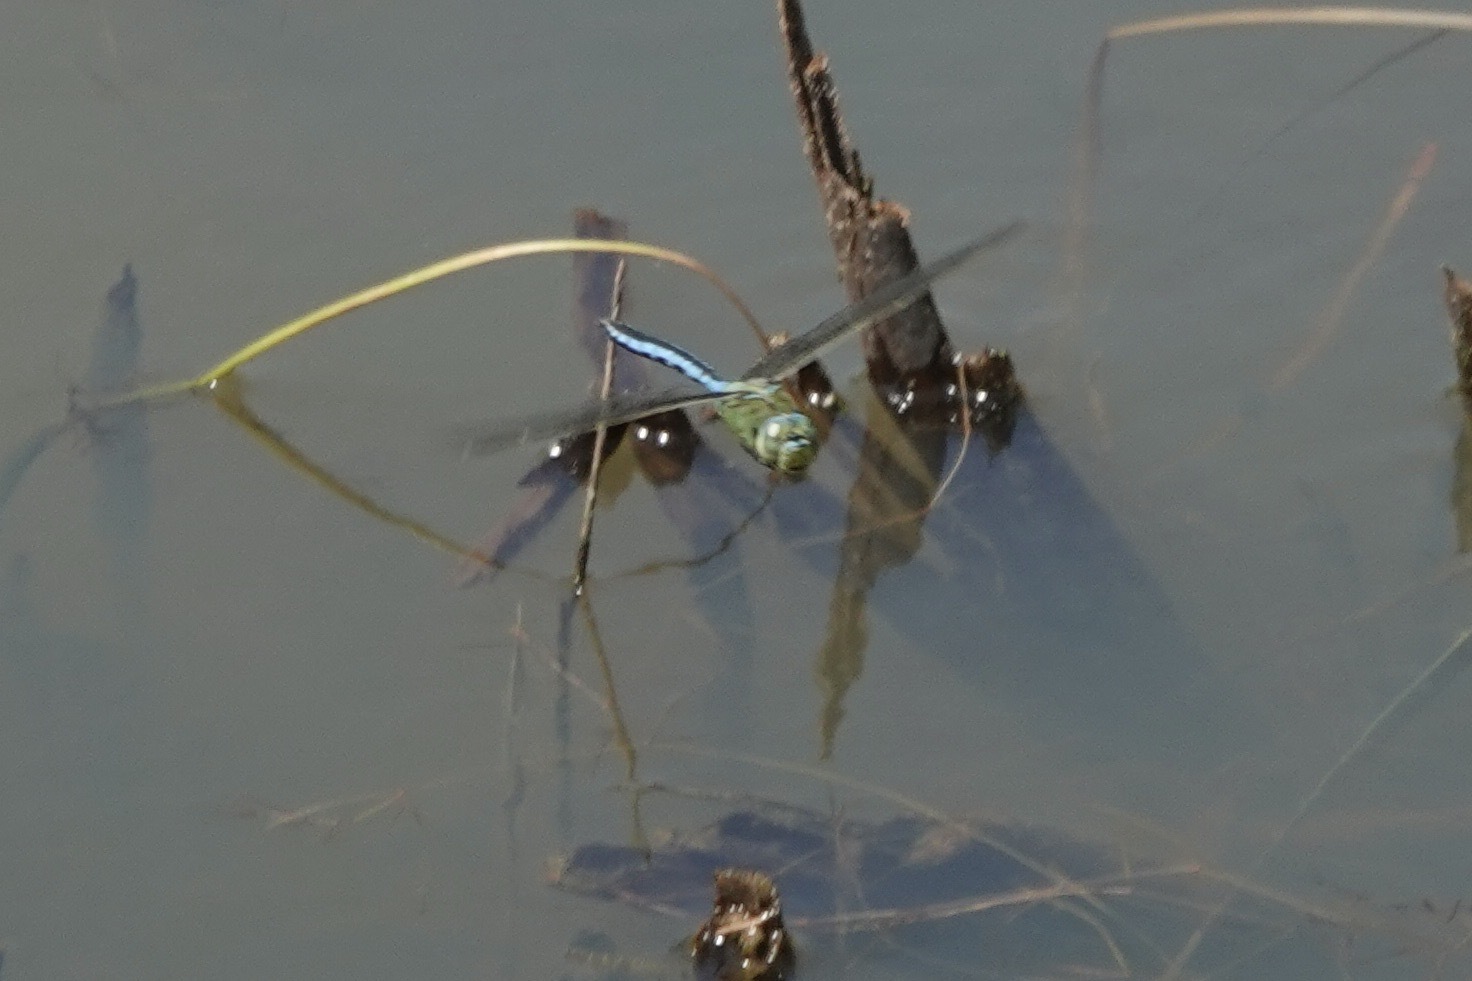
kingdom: Animalia
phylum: Arthropoda
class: Insecta
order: Odonata
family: Aeshnidae
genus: Anax
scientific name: Anax imperator
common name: Emperor dragonfly
